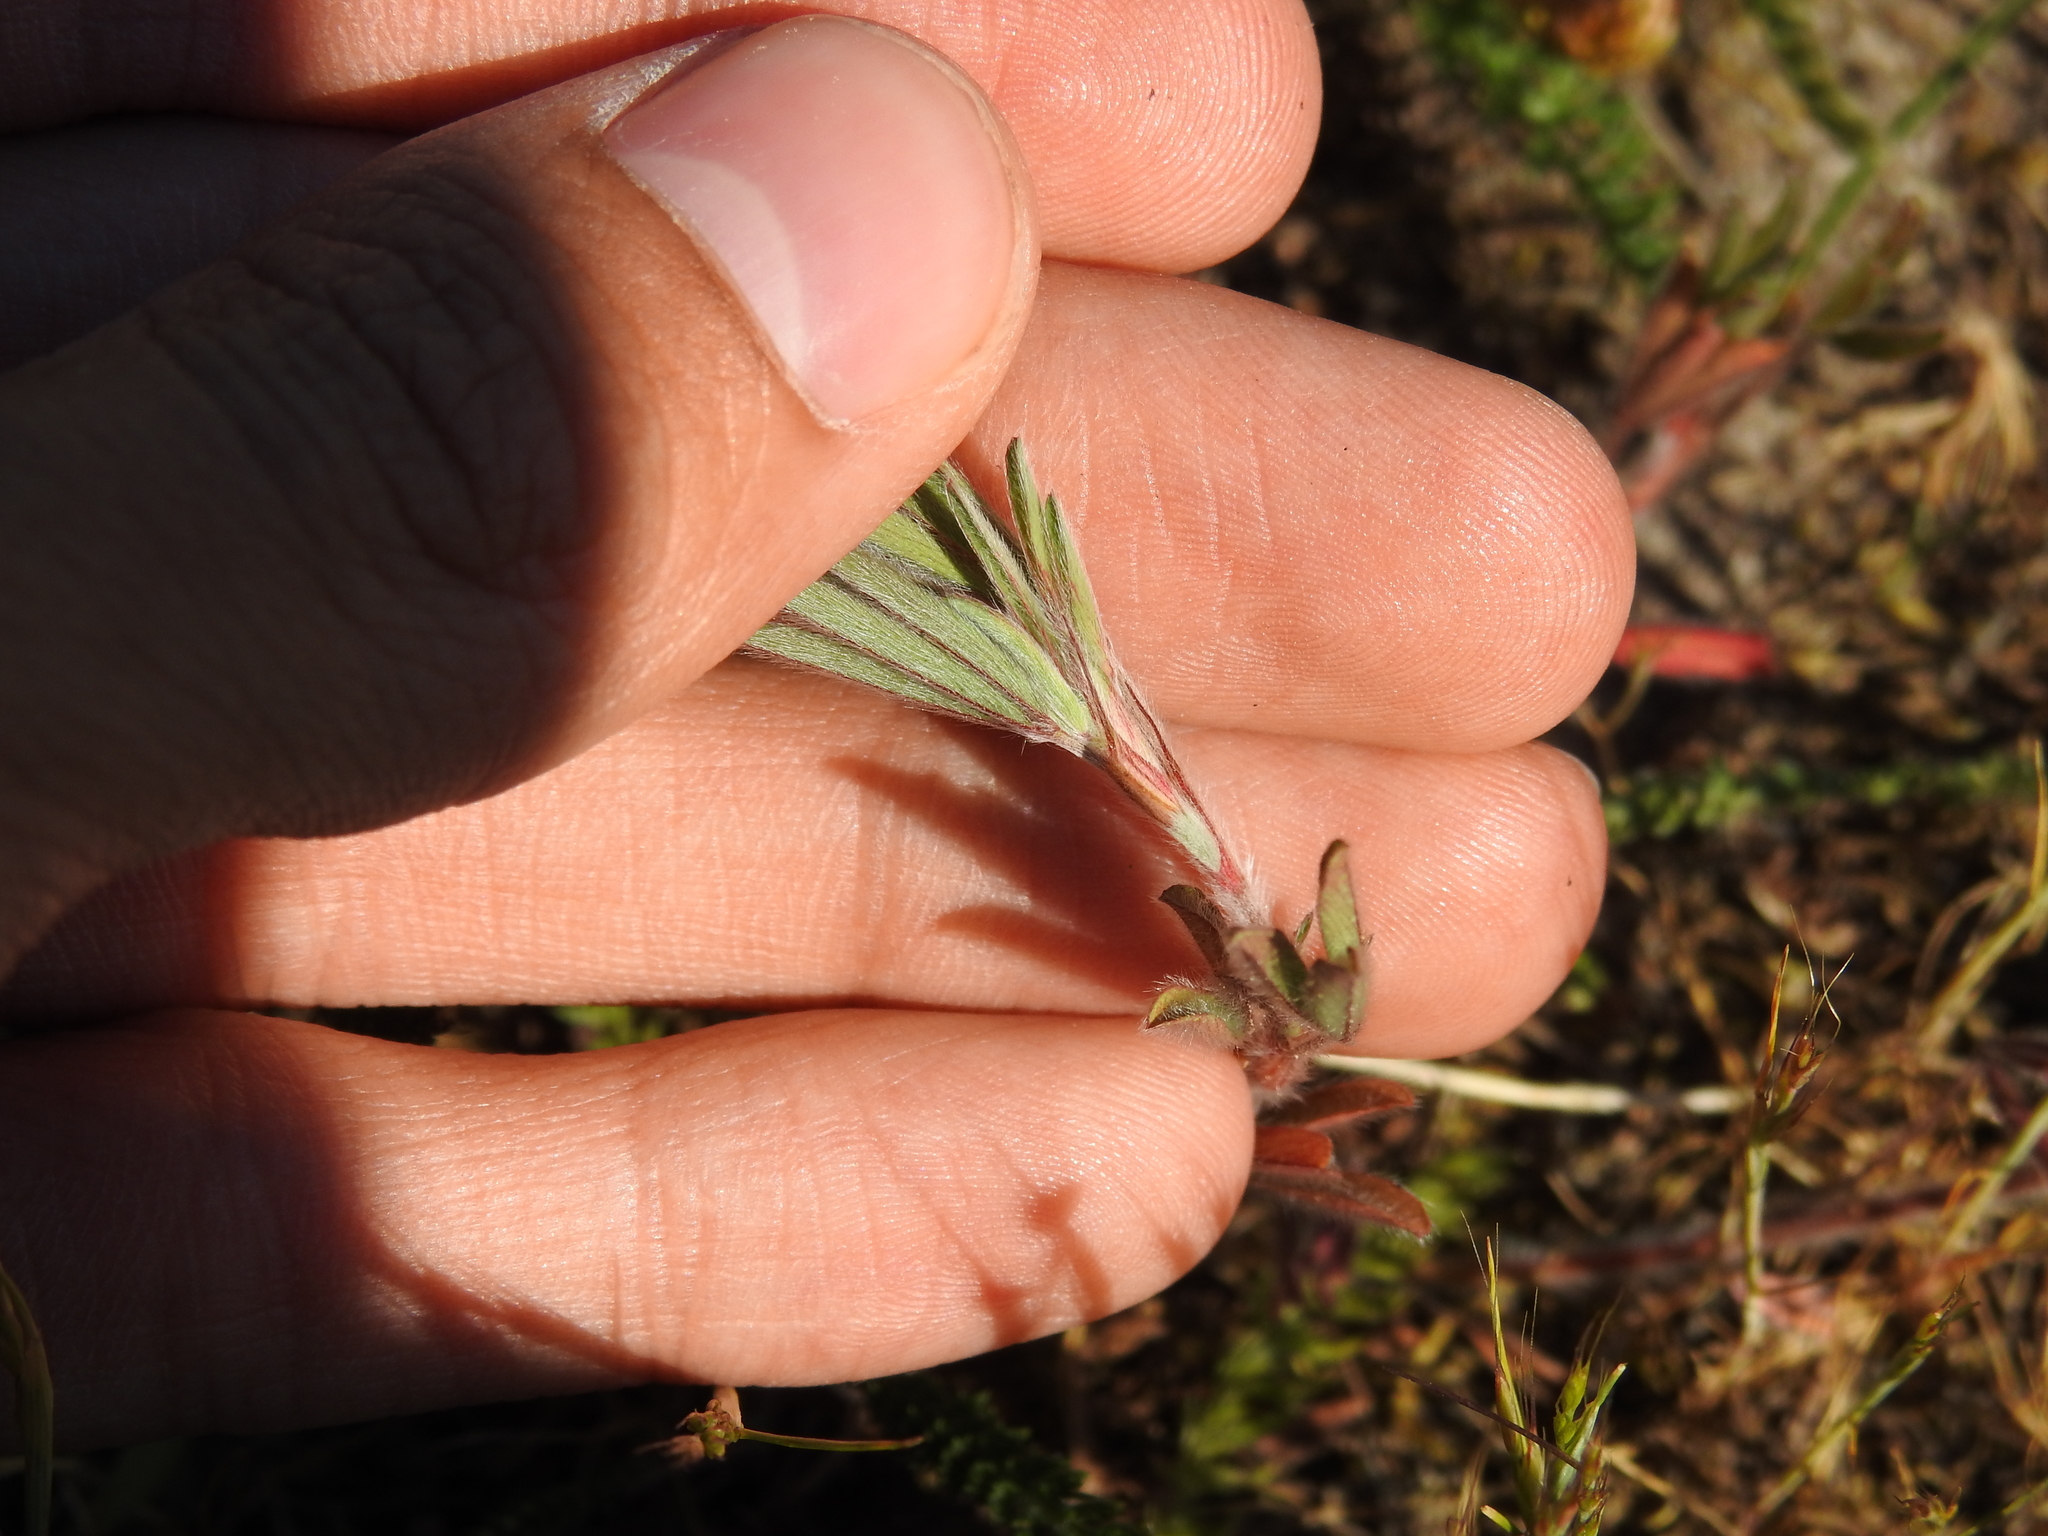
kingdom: Plantae
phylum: Tracheophyta
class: Magnoliopsida
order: Fabales
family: Fabaceae
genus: Trifolium
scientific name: Trifolium arvense
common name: Hare's-foot clover
